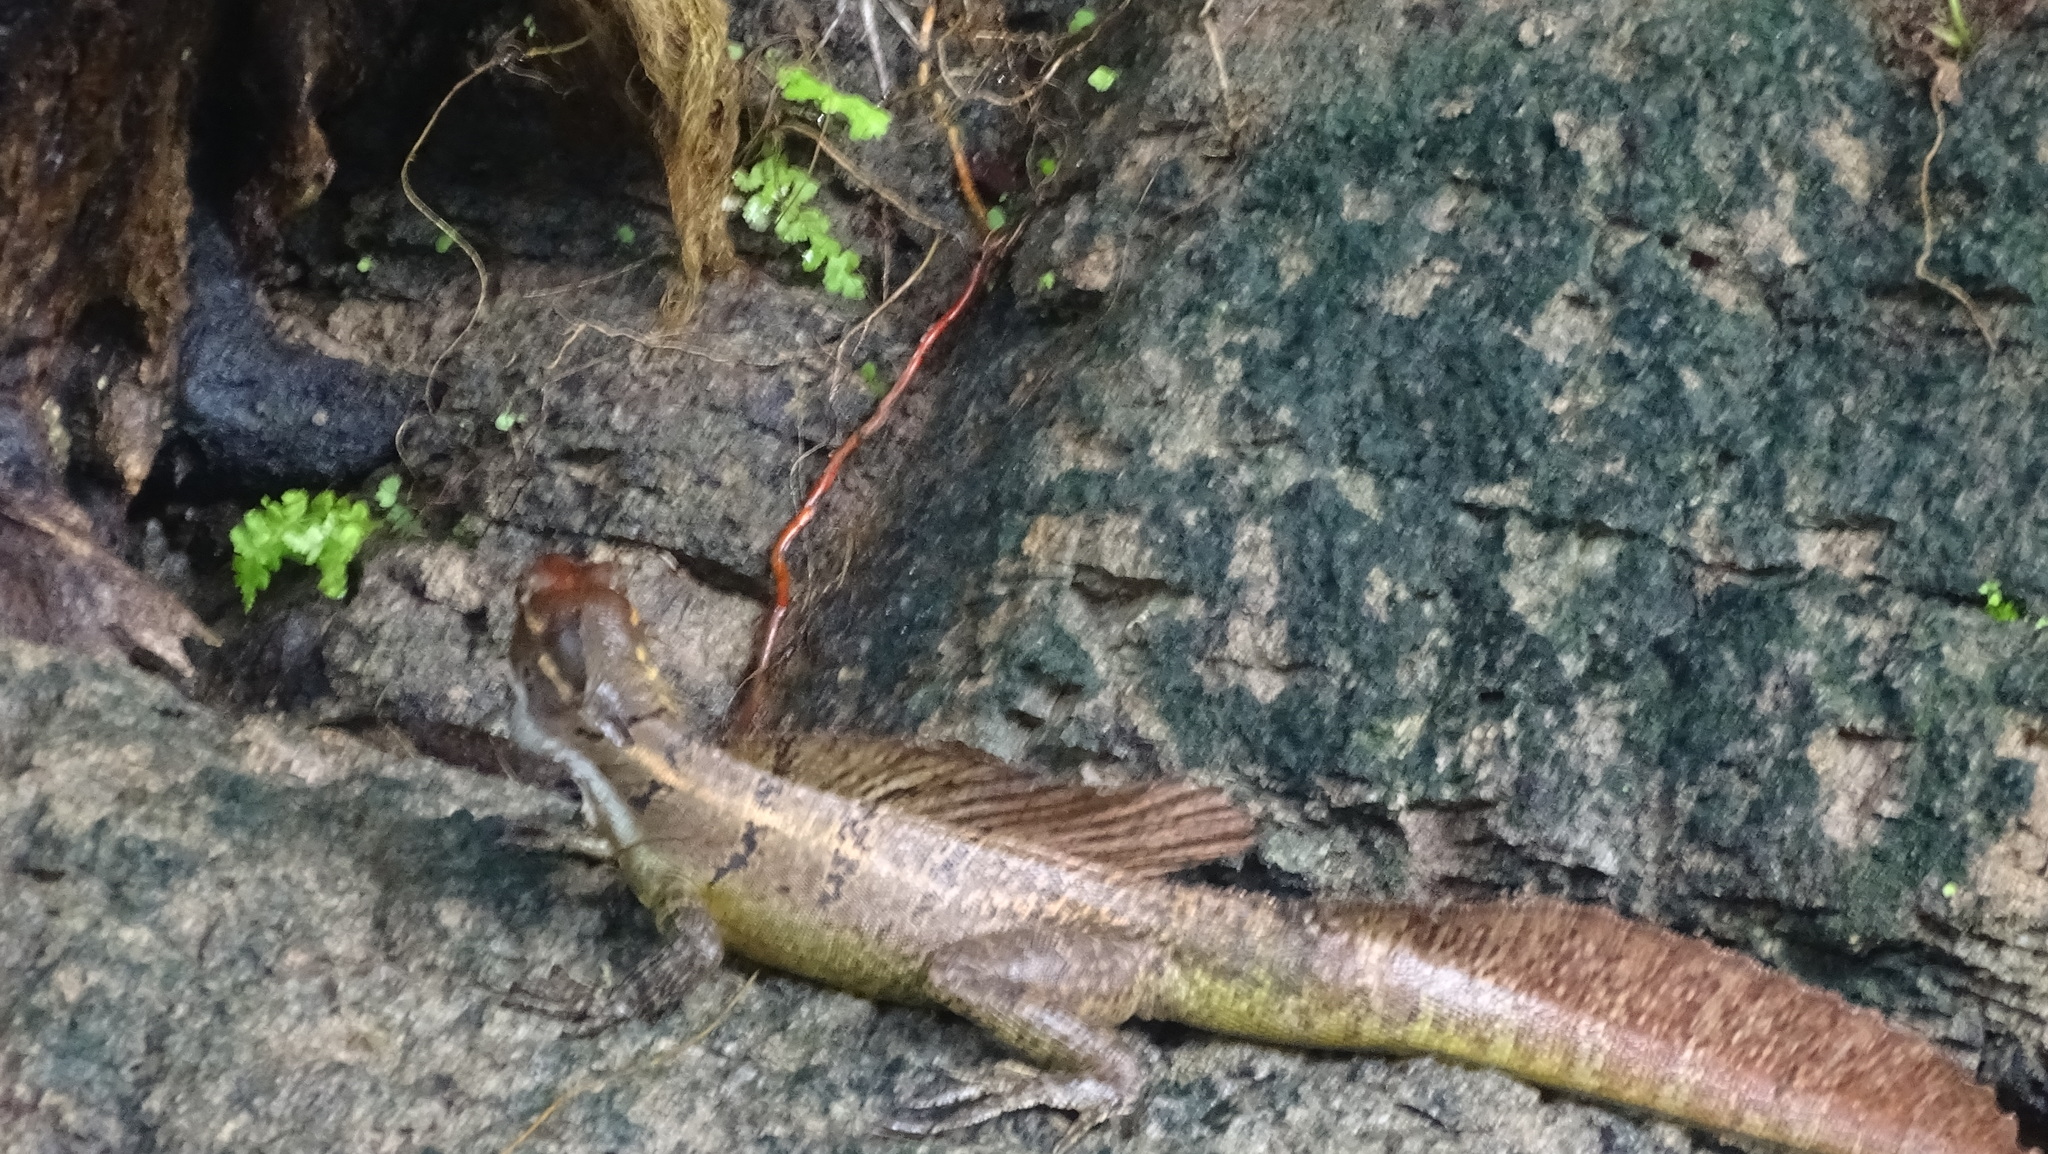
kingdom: Animalia
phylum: Chordata
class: Squamata
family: Corytophanidae
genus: Basiliscus
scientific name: Basiliscus basiliscus
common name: Common basilisk
